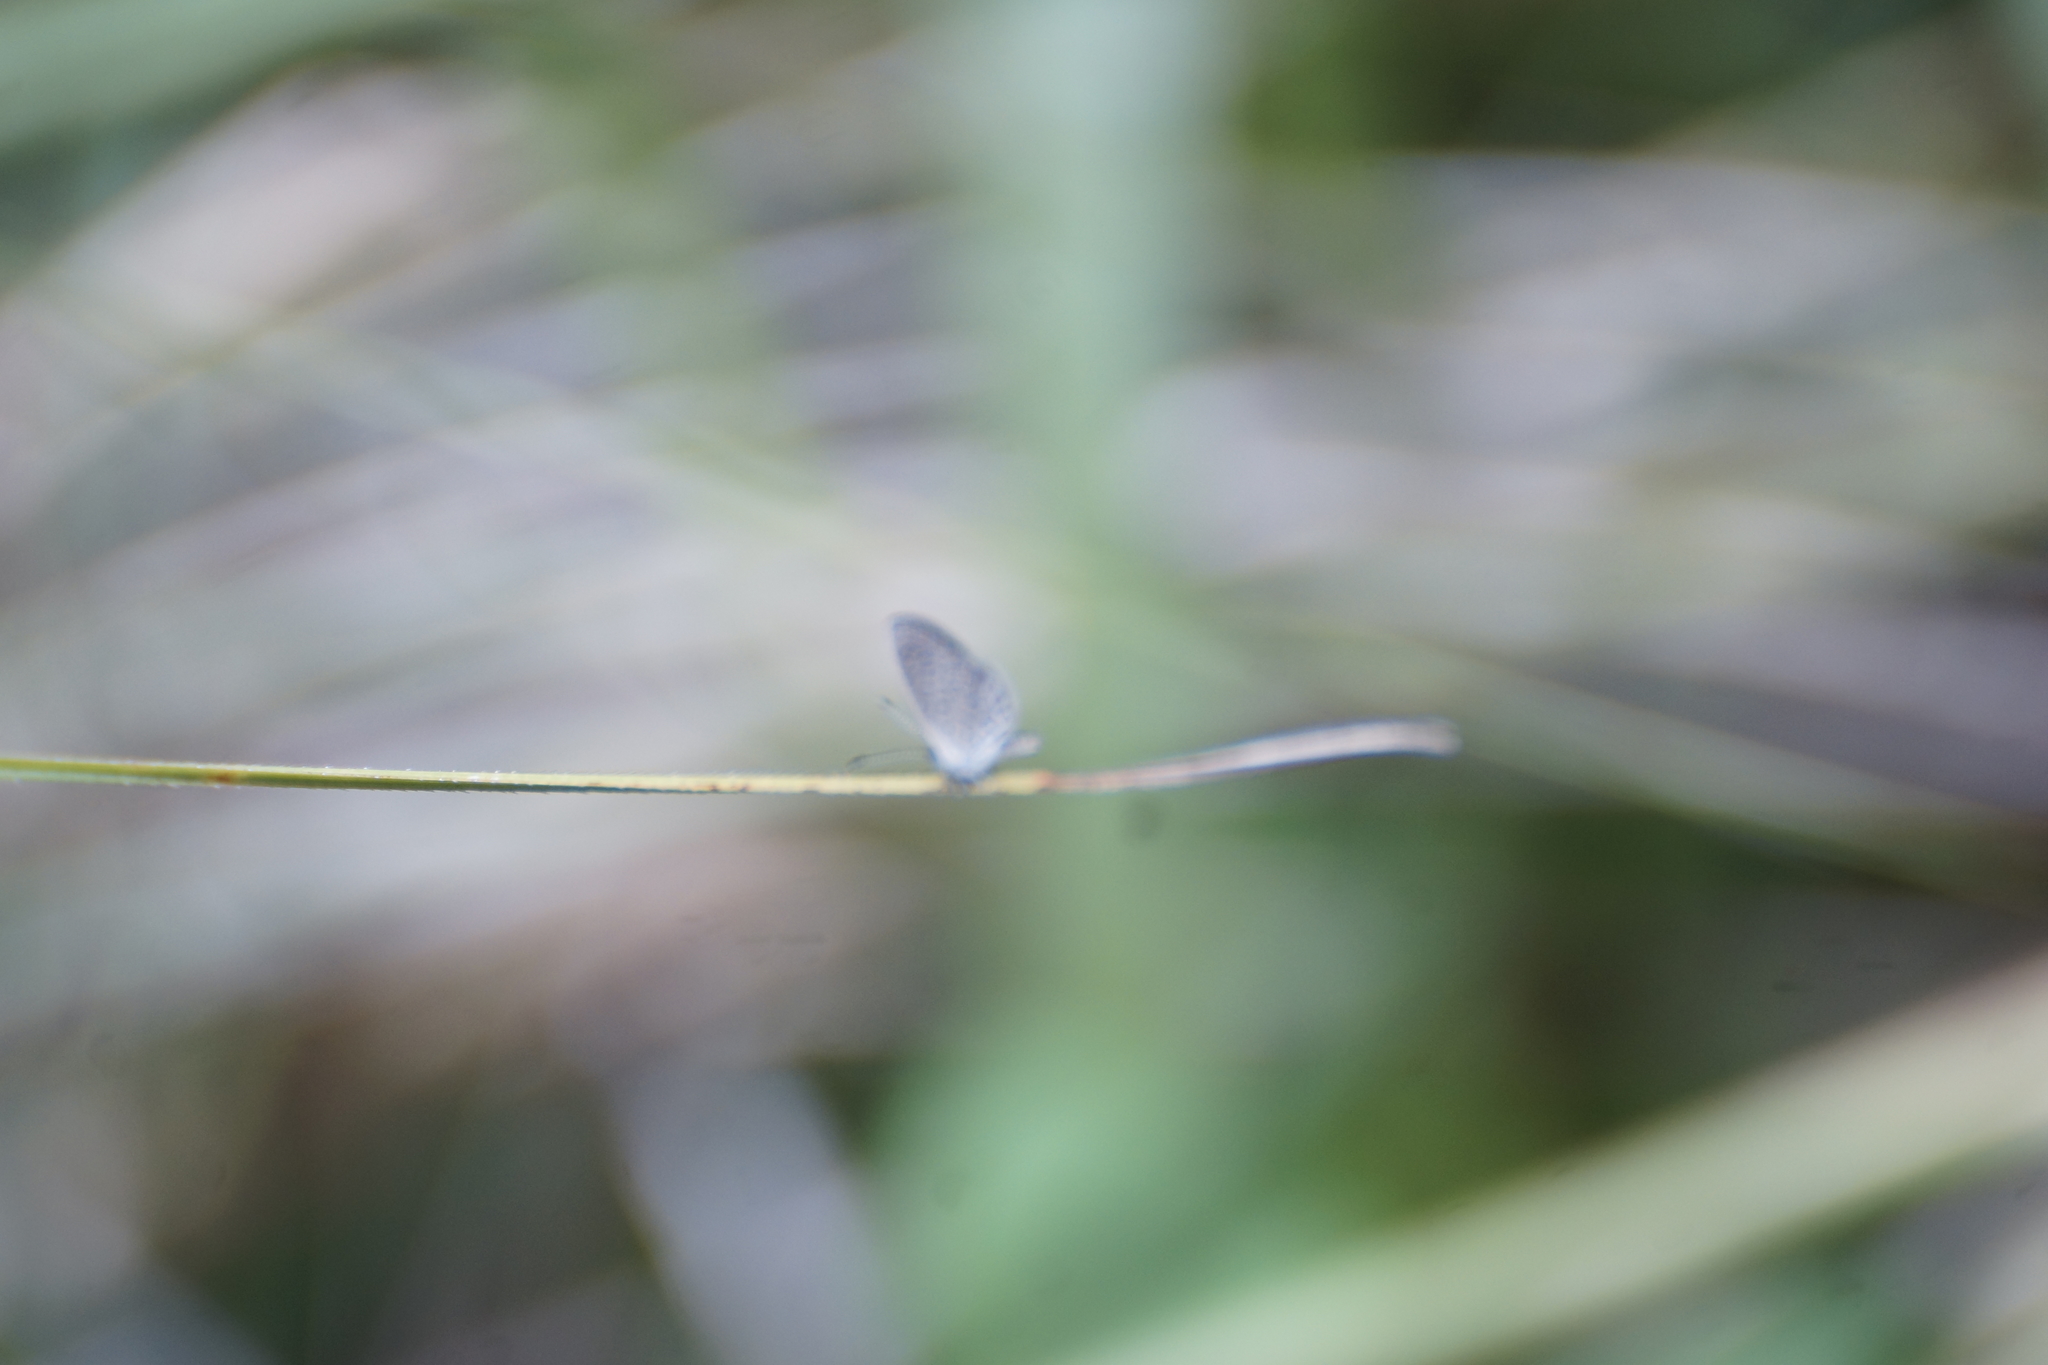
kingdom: Animalia
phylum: Arthropoda
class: Insecta
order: Lepidoptera
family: Lycaenidae
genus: Zizina
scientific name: Zizina labradus
